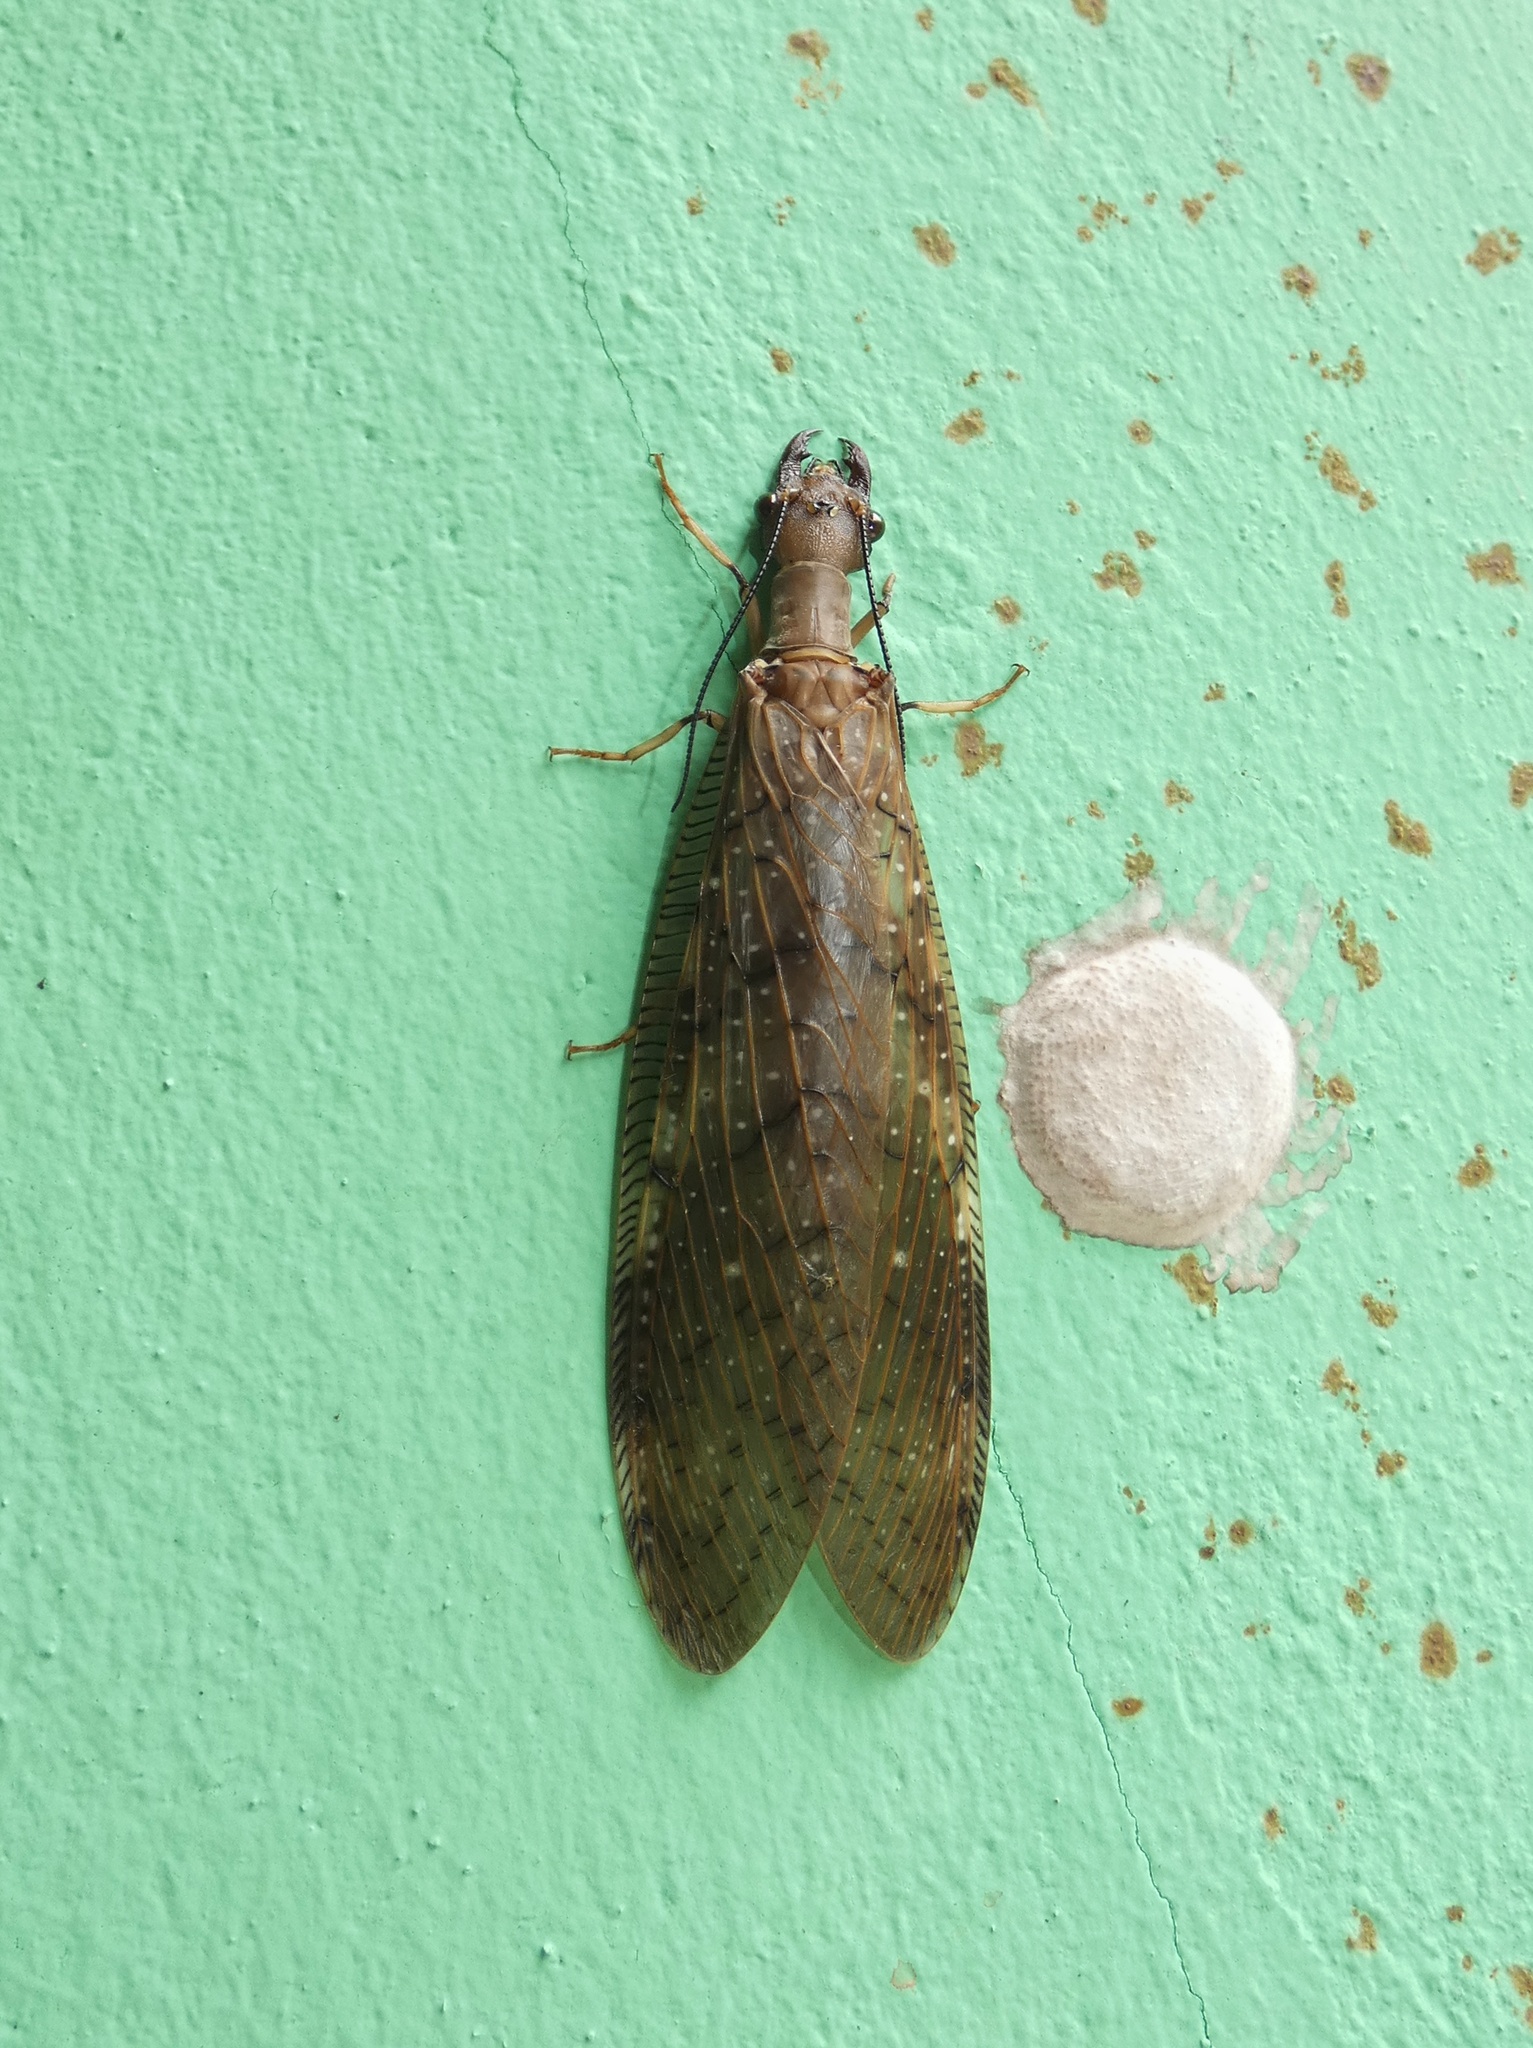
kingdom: Animalia
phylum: Arthropoda
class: Insecta
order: Megaloptera
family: Corydalidae
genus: Corydalus
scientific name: Corydalus peruvianus
